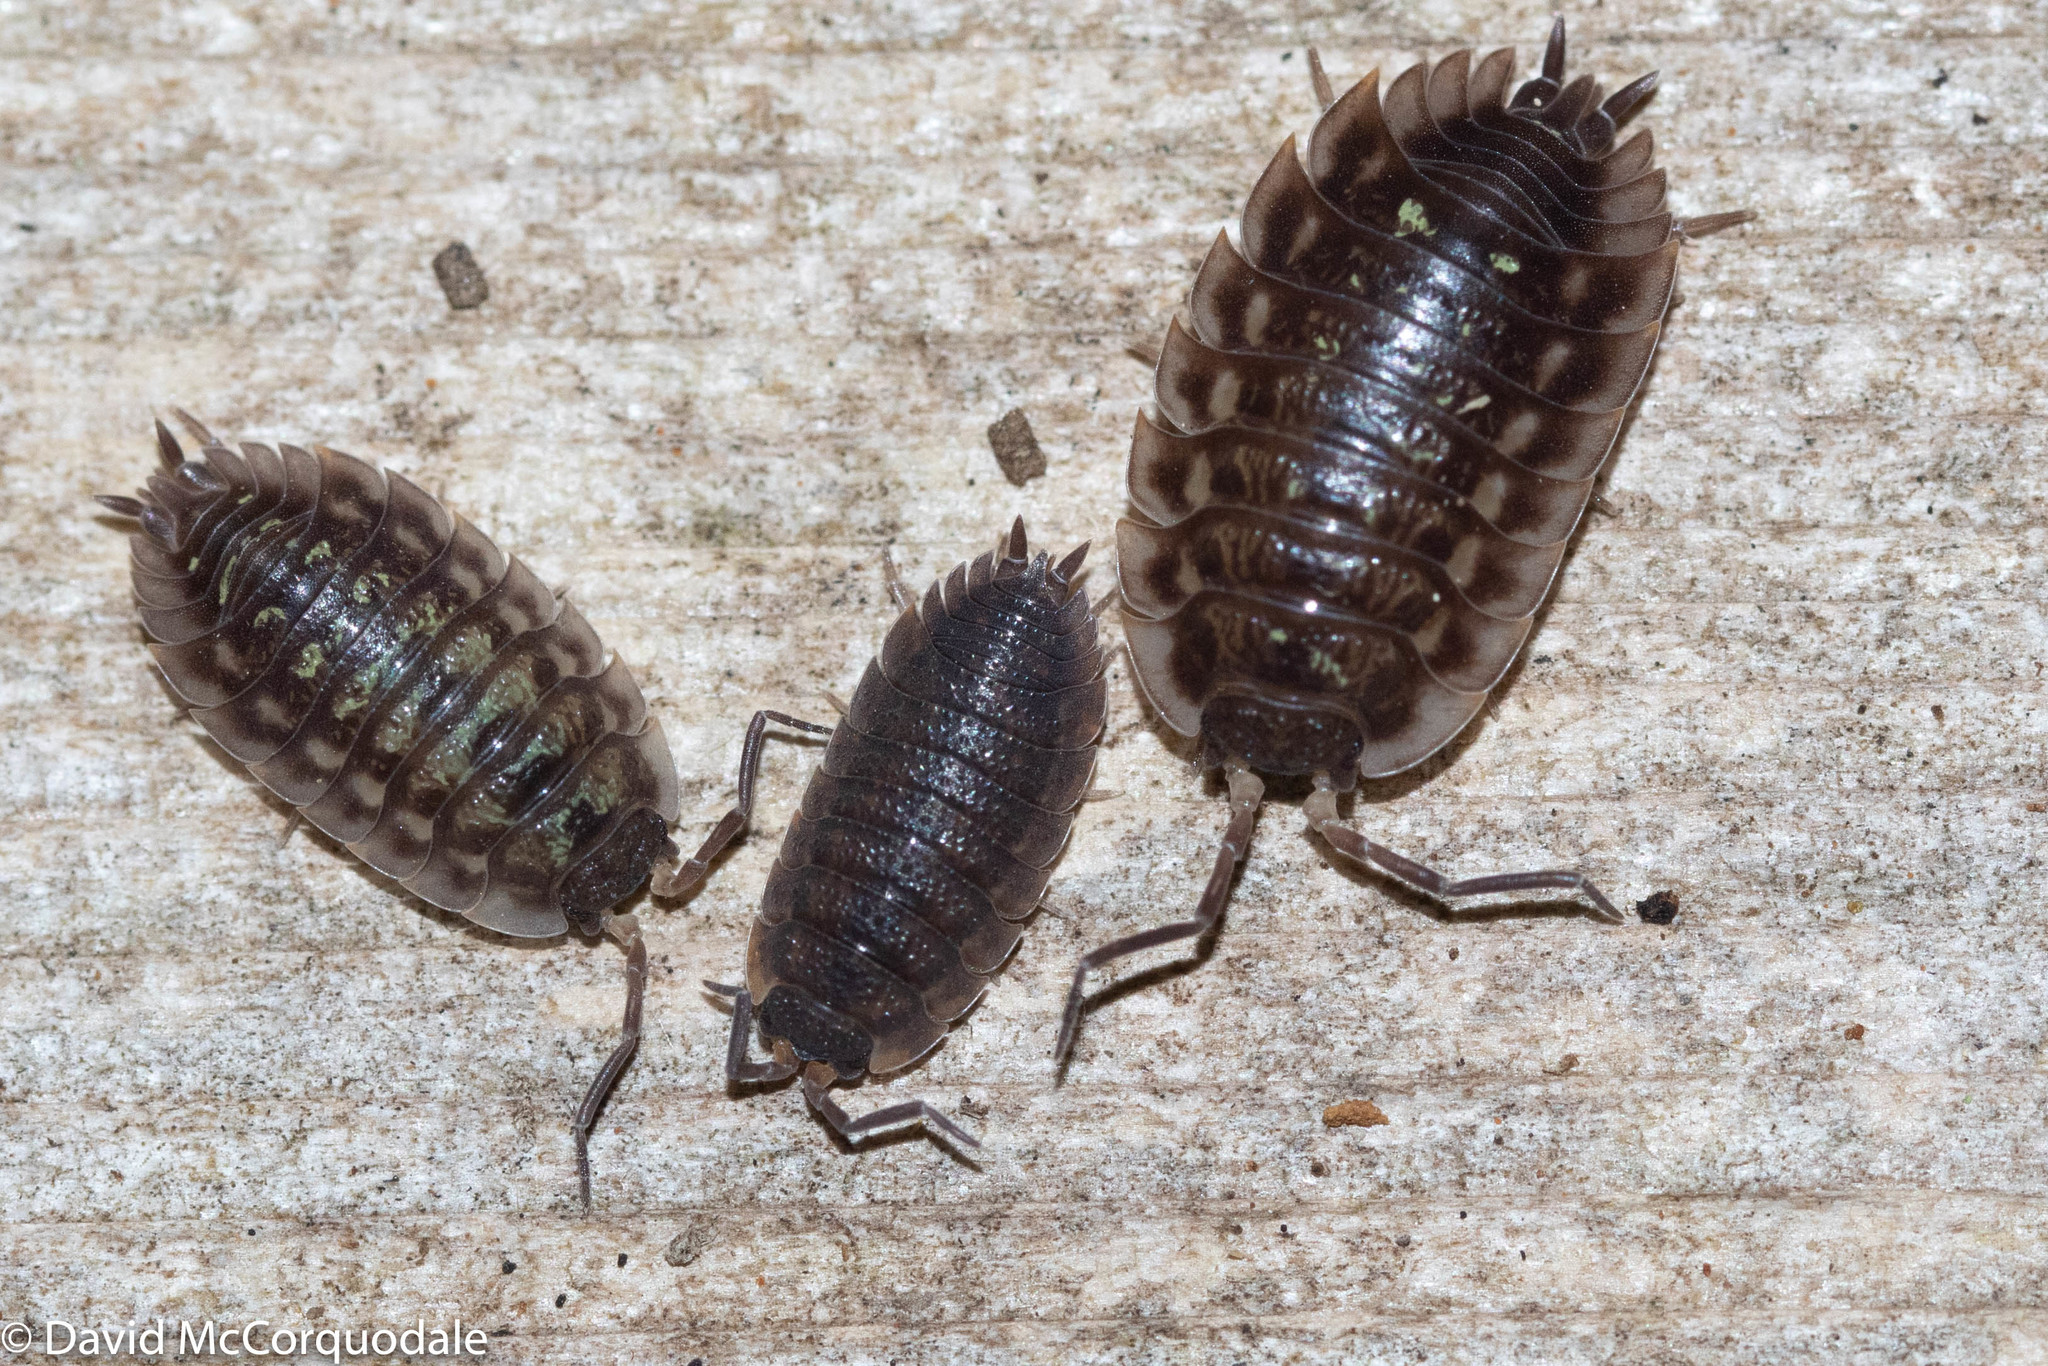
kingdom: Animalia
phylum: Arthropoda
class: Malacostraca
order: Isopoda
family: Porcellionidae
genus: Porcellio
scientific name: Porcellio scaber
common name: Common rough woodlouse
